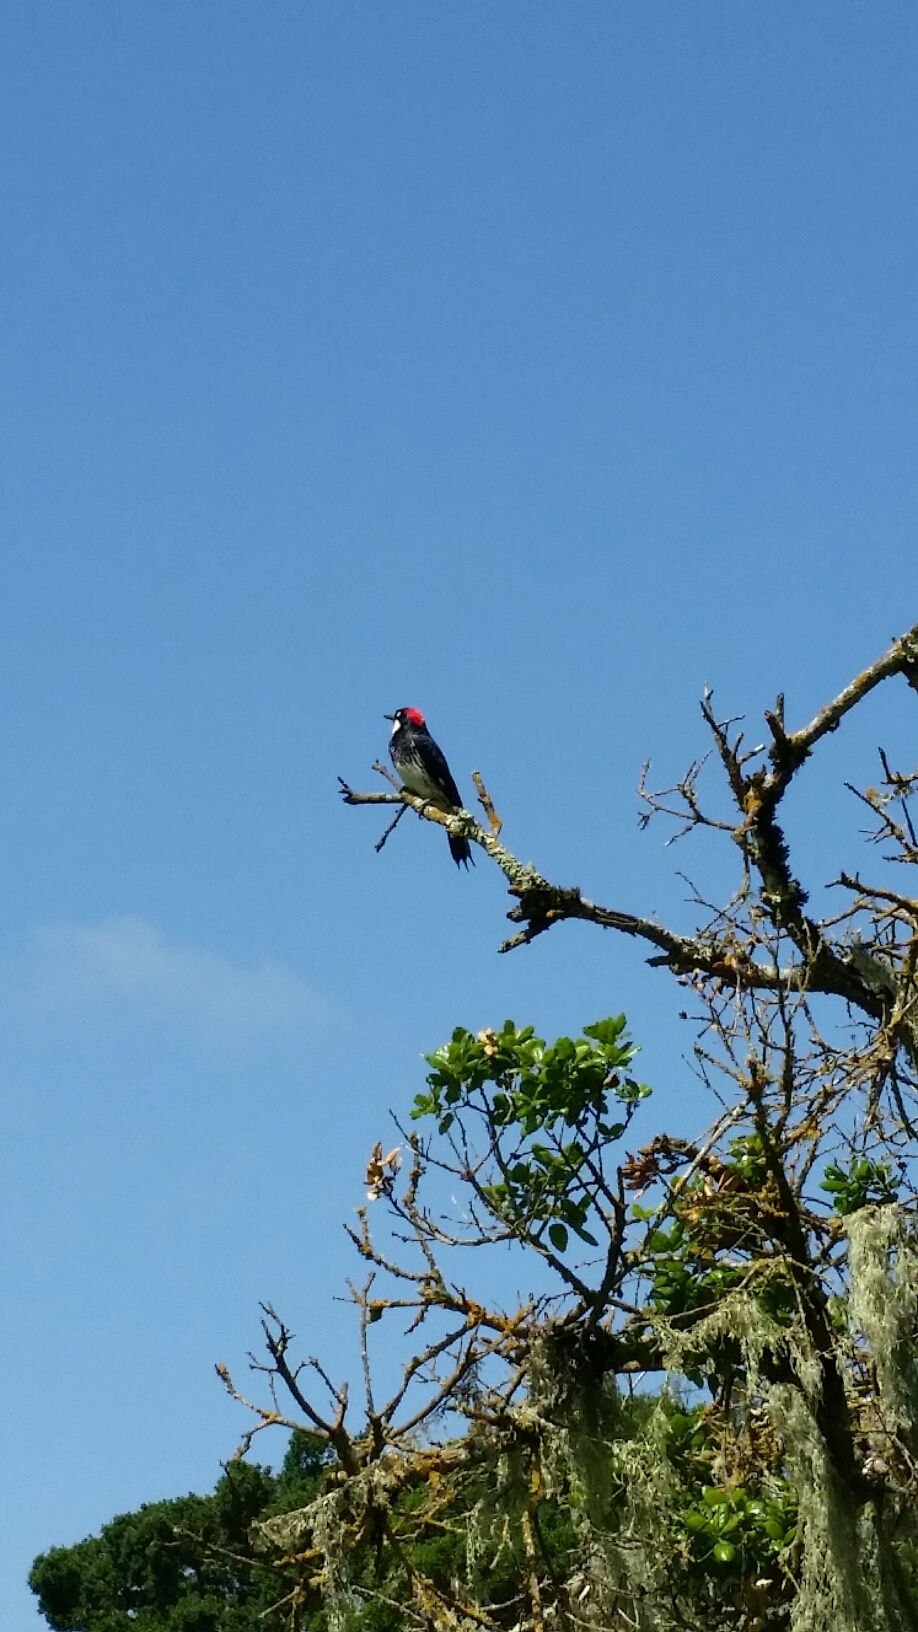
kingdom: Animalia
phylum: Chordata
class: Aves
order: Piciformes
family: Picidae
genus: Melanerpes
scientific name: Melanerpes formicivorus
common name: Acorn woodpecker
